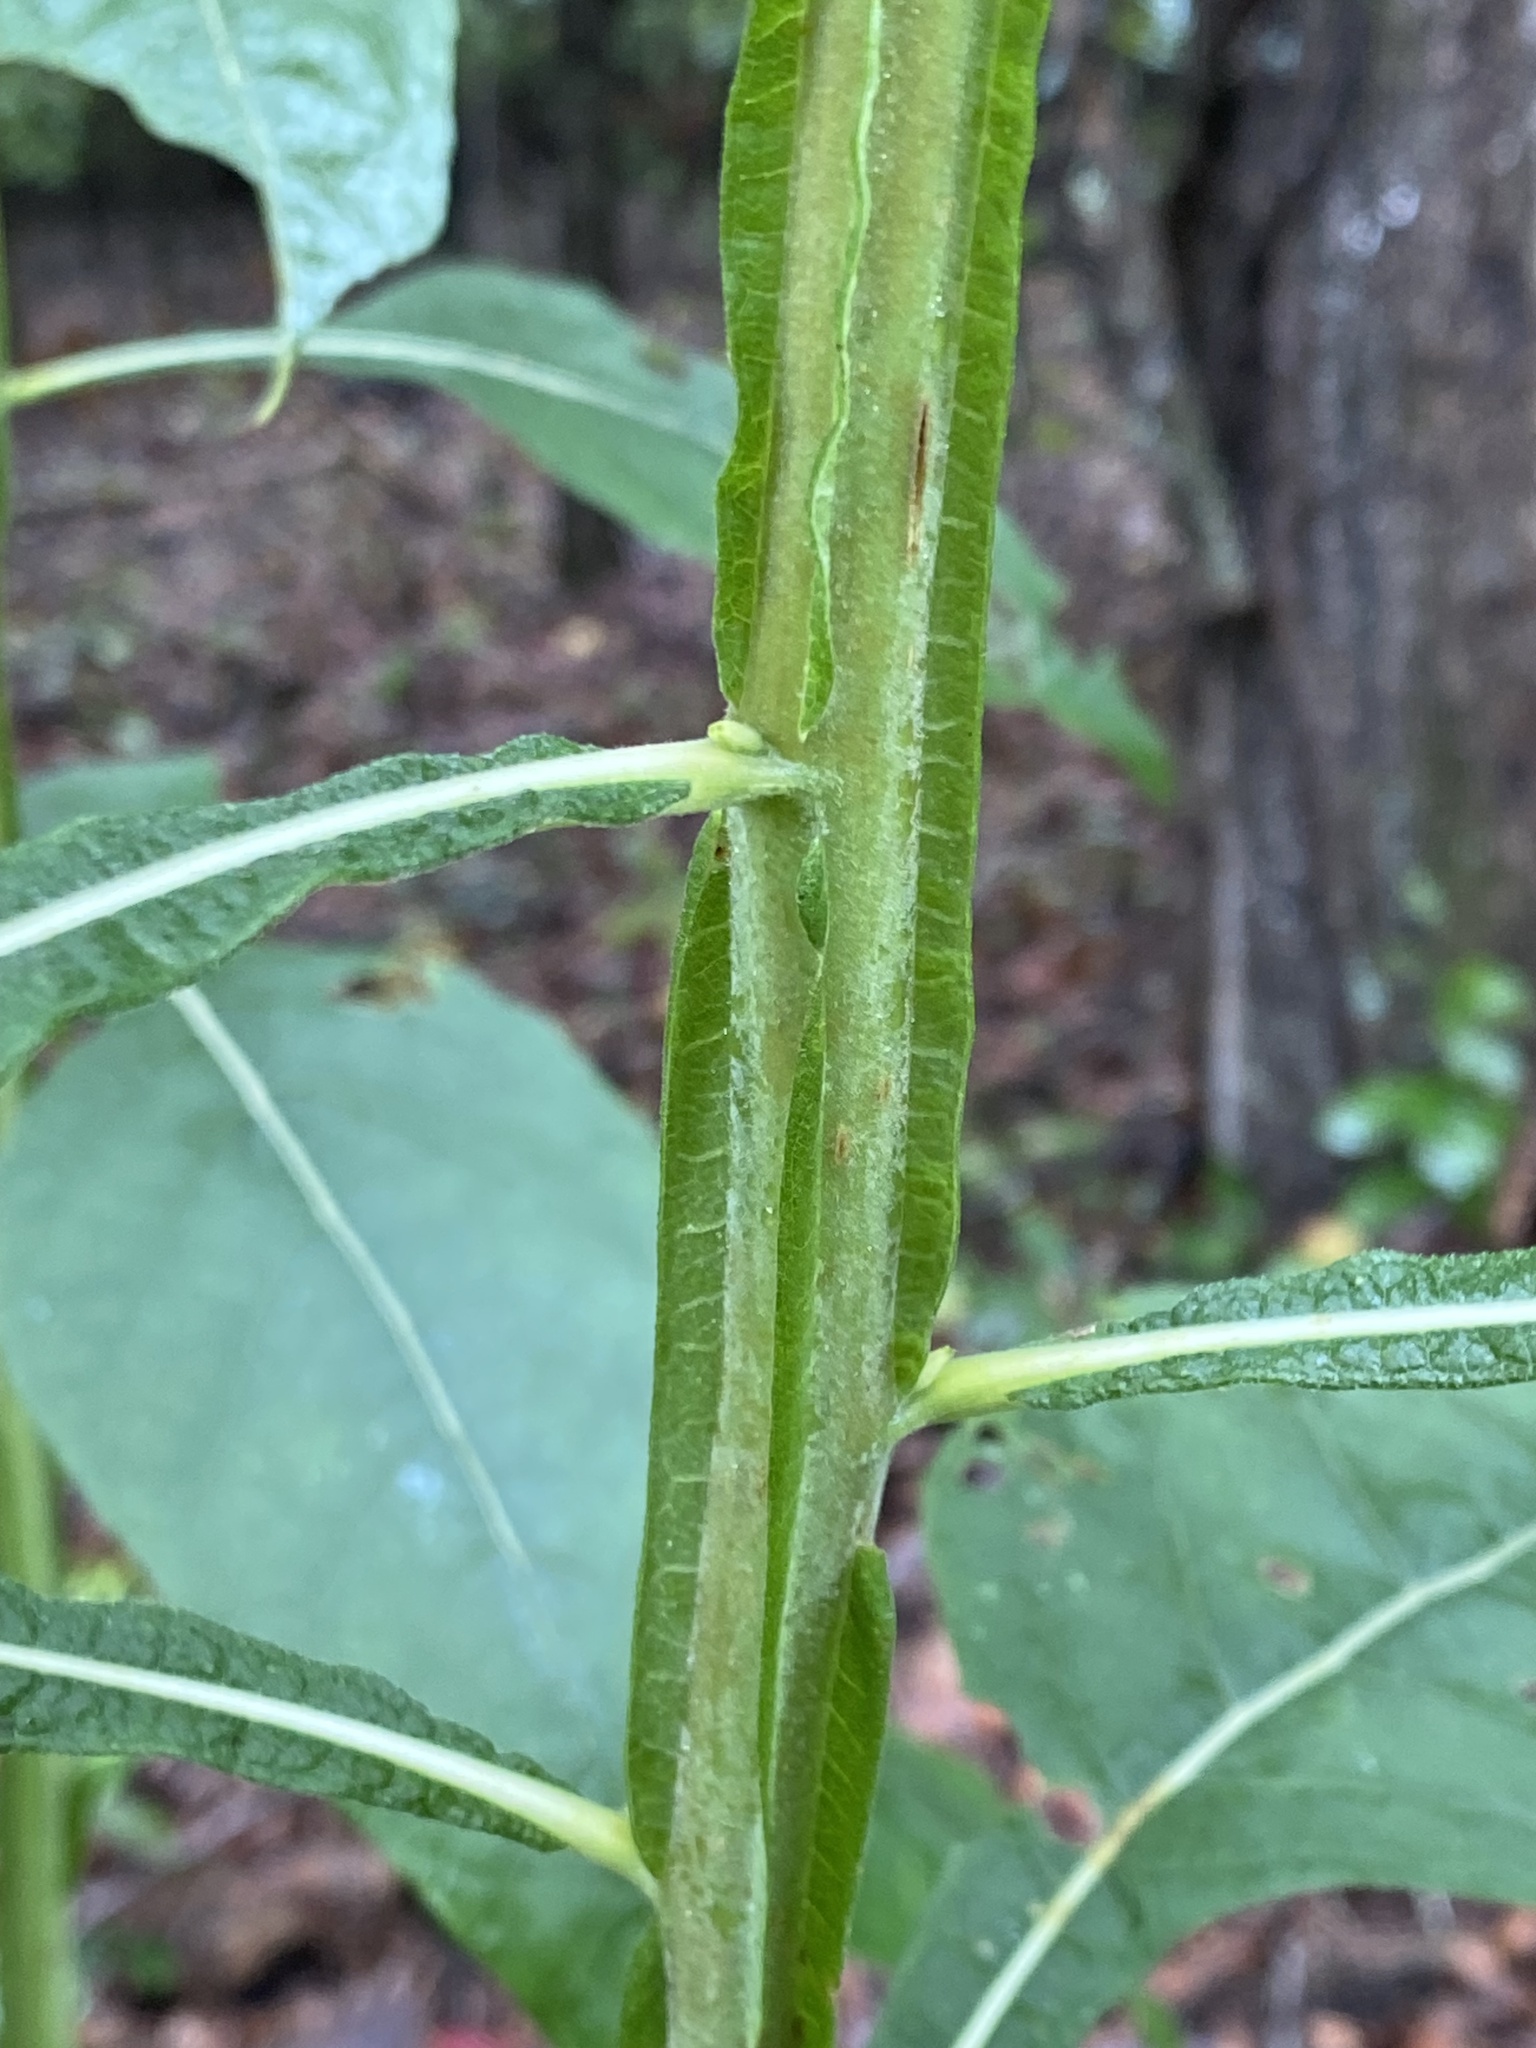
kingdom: Plantae
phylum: Tracheophyta
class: Magnoliopsida
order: Asterales
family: Asteraceae
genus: Verbesina
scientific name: Verbesina virginica
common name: Frostweed
